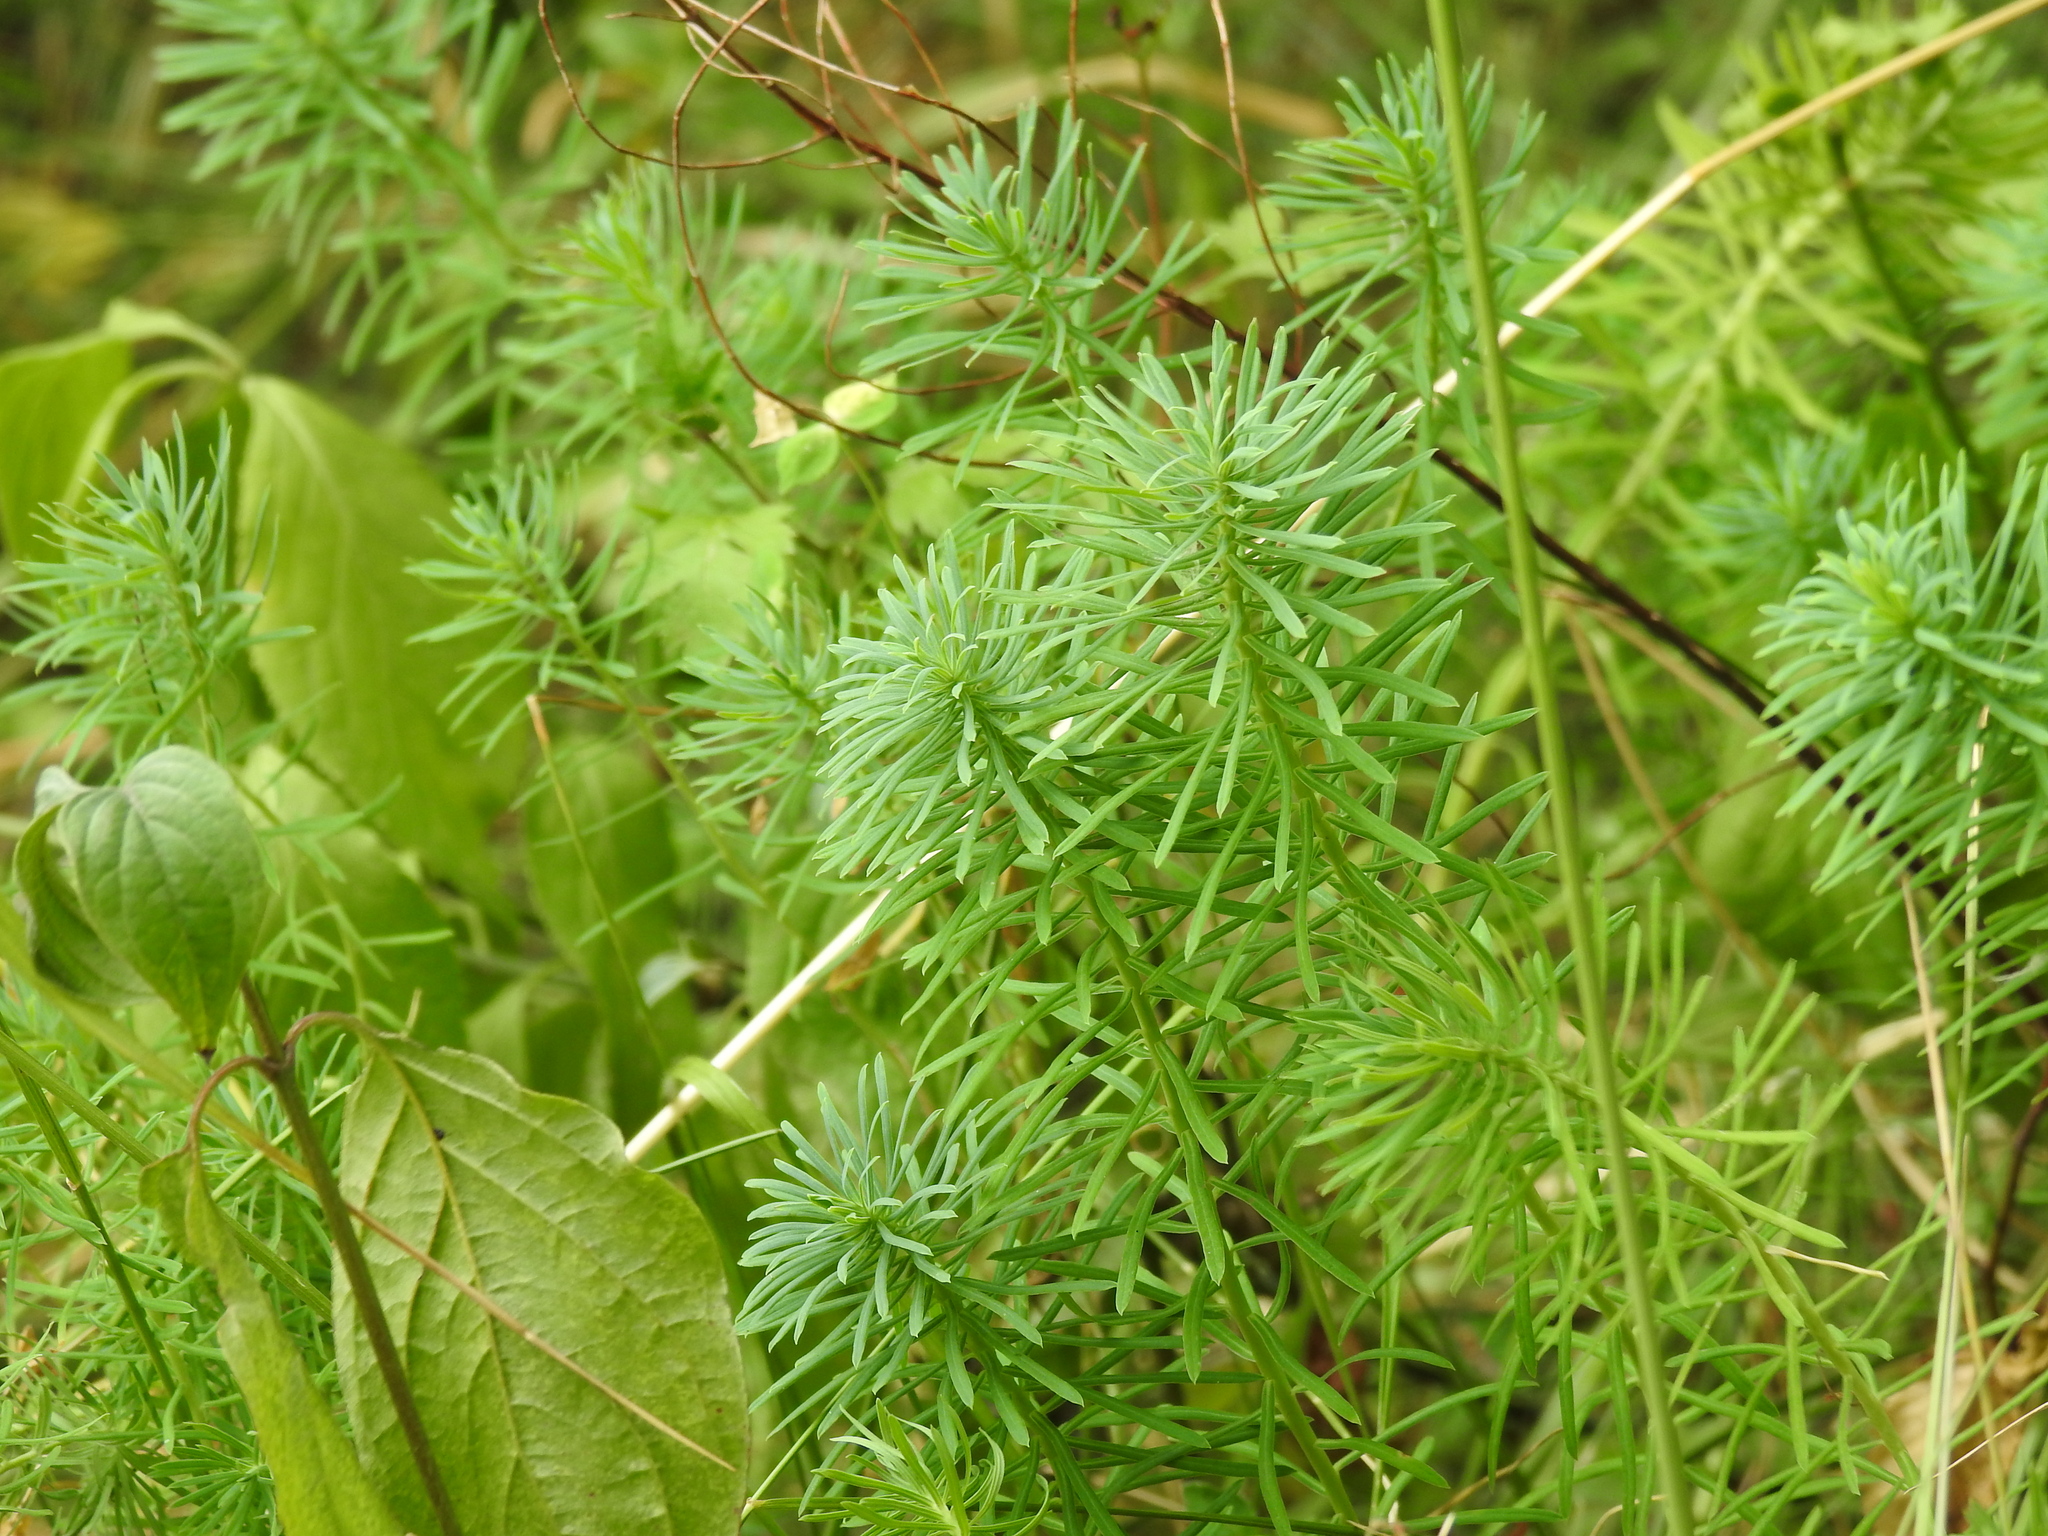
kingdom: Plantae
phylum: Tracheophyta
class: Magnoliopsida
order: Malpighiales
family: Euphorbiaceae
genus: Euphorbia
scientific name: Euphorbia cyparissias
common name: Cypress spurge
